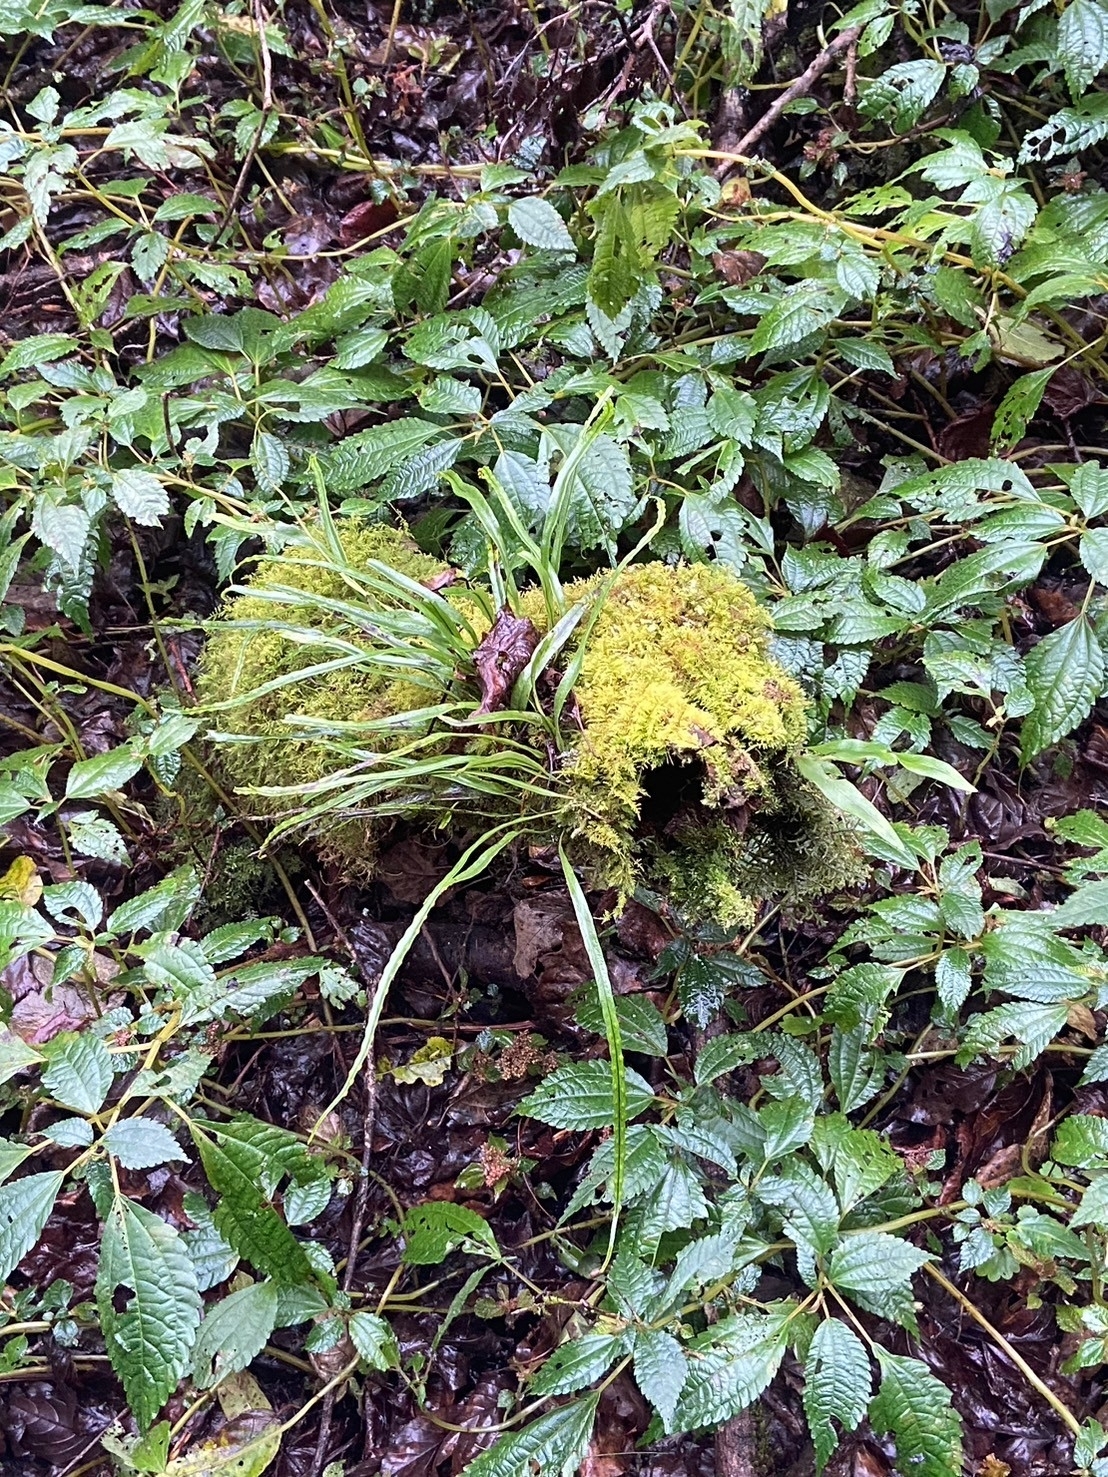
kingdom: Plantae
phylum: Tracheophyta
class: Polypodiopsida
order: Polypodiales
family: Polypodiaceae
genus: Lepisorus
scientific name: Lepisorus monilisorus
